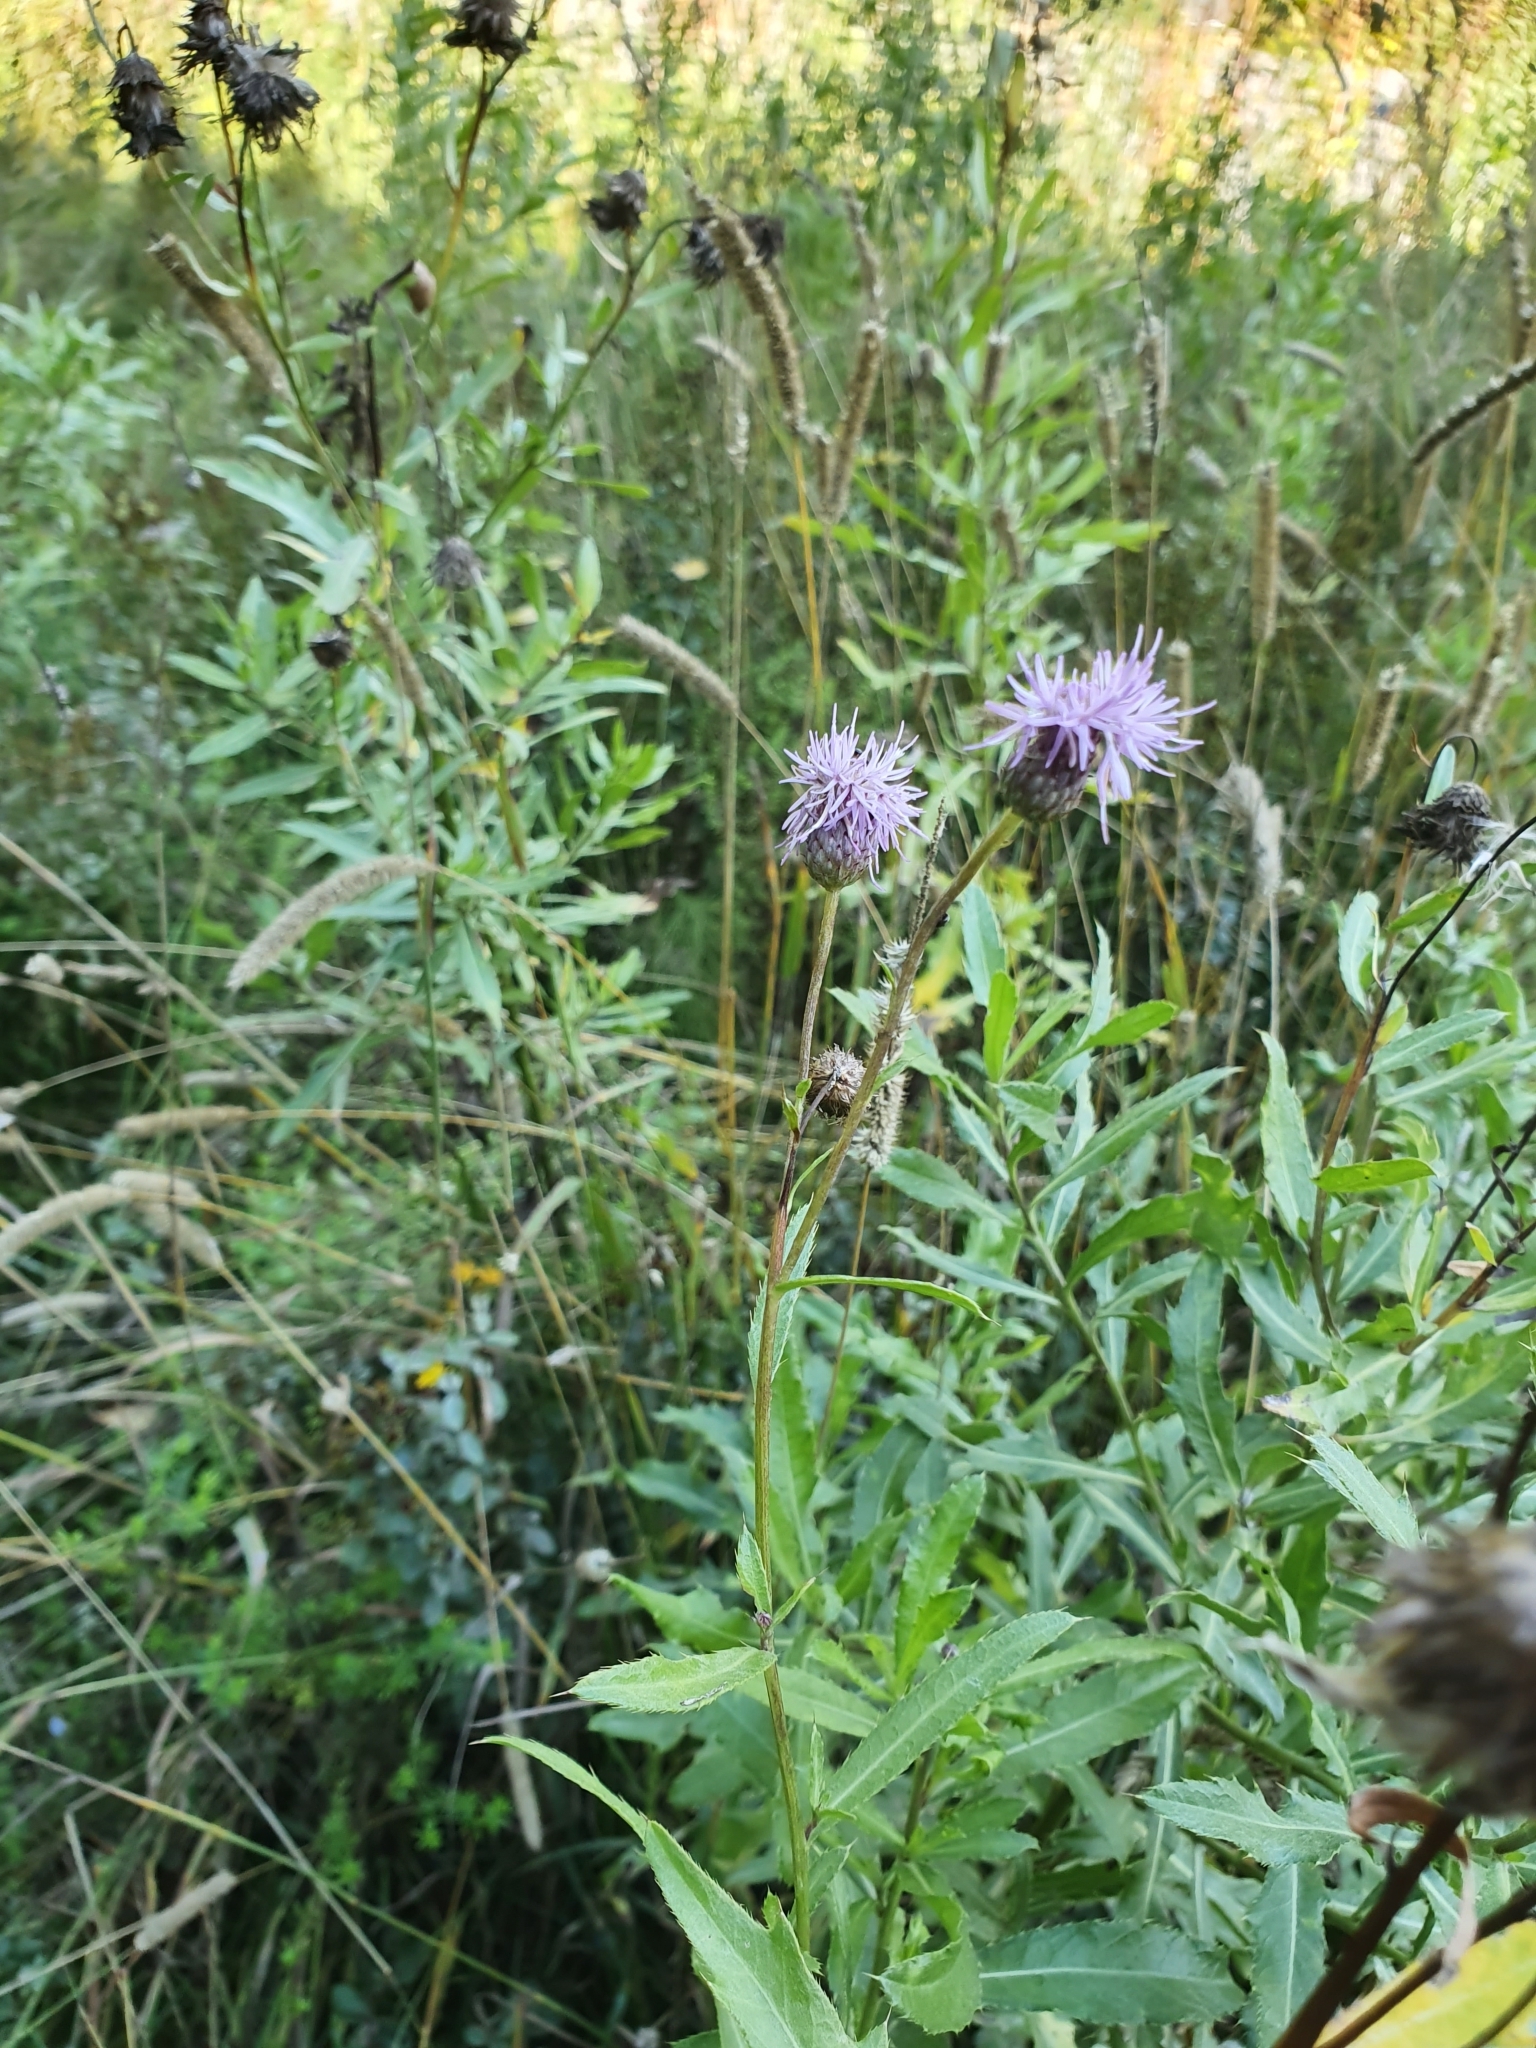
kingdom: Plantae
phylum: Tracheophyta
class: Magnoliopsida
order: Asterales
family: Asteraceae
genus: Cirsium
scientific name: Cirsium arvense
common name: Creeping thistle
